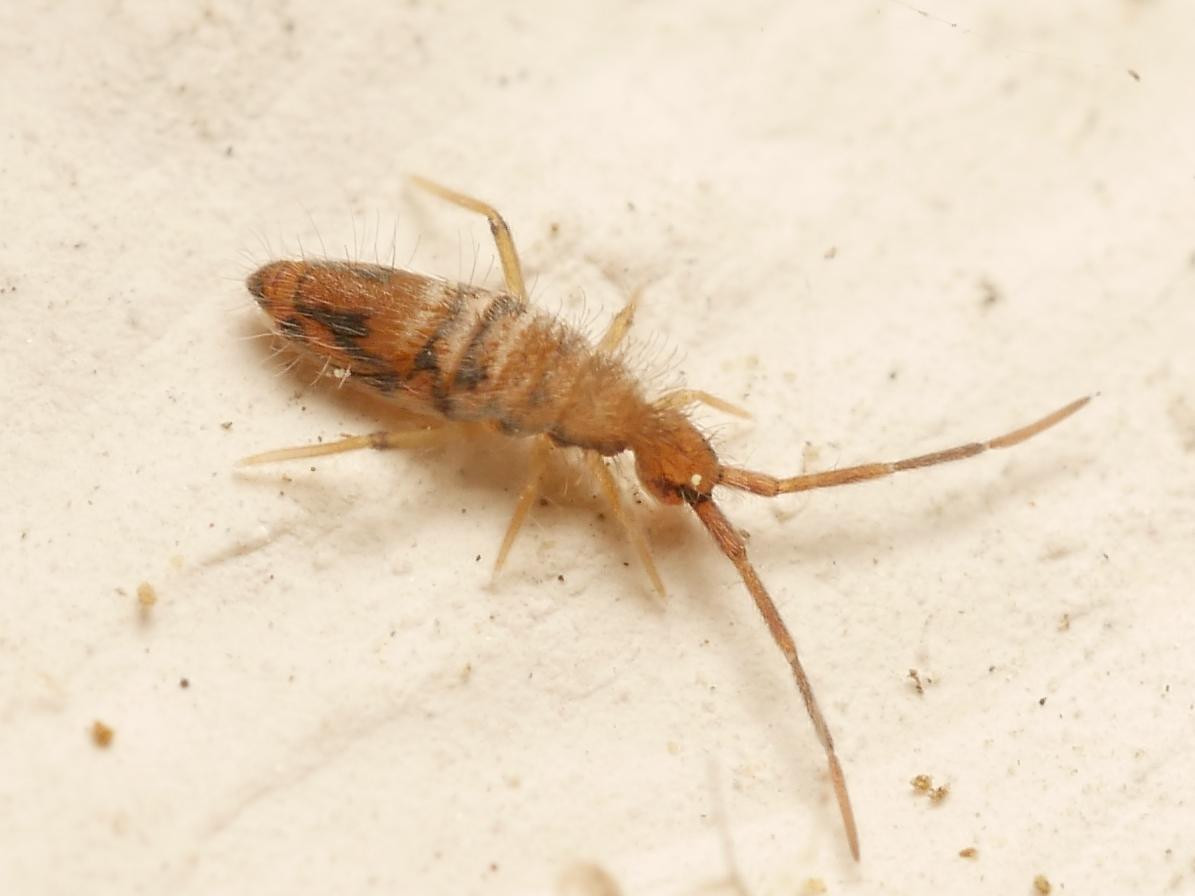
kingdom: Animalia
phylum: Arthropoda
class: Collembola
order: Entomobryomorpha
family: Entomobryidae
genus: Entomobrya
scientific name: Entomobrya nivalis
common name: Cosmopolitan springtail
